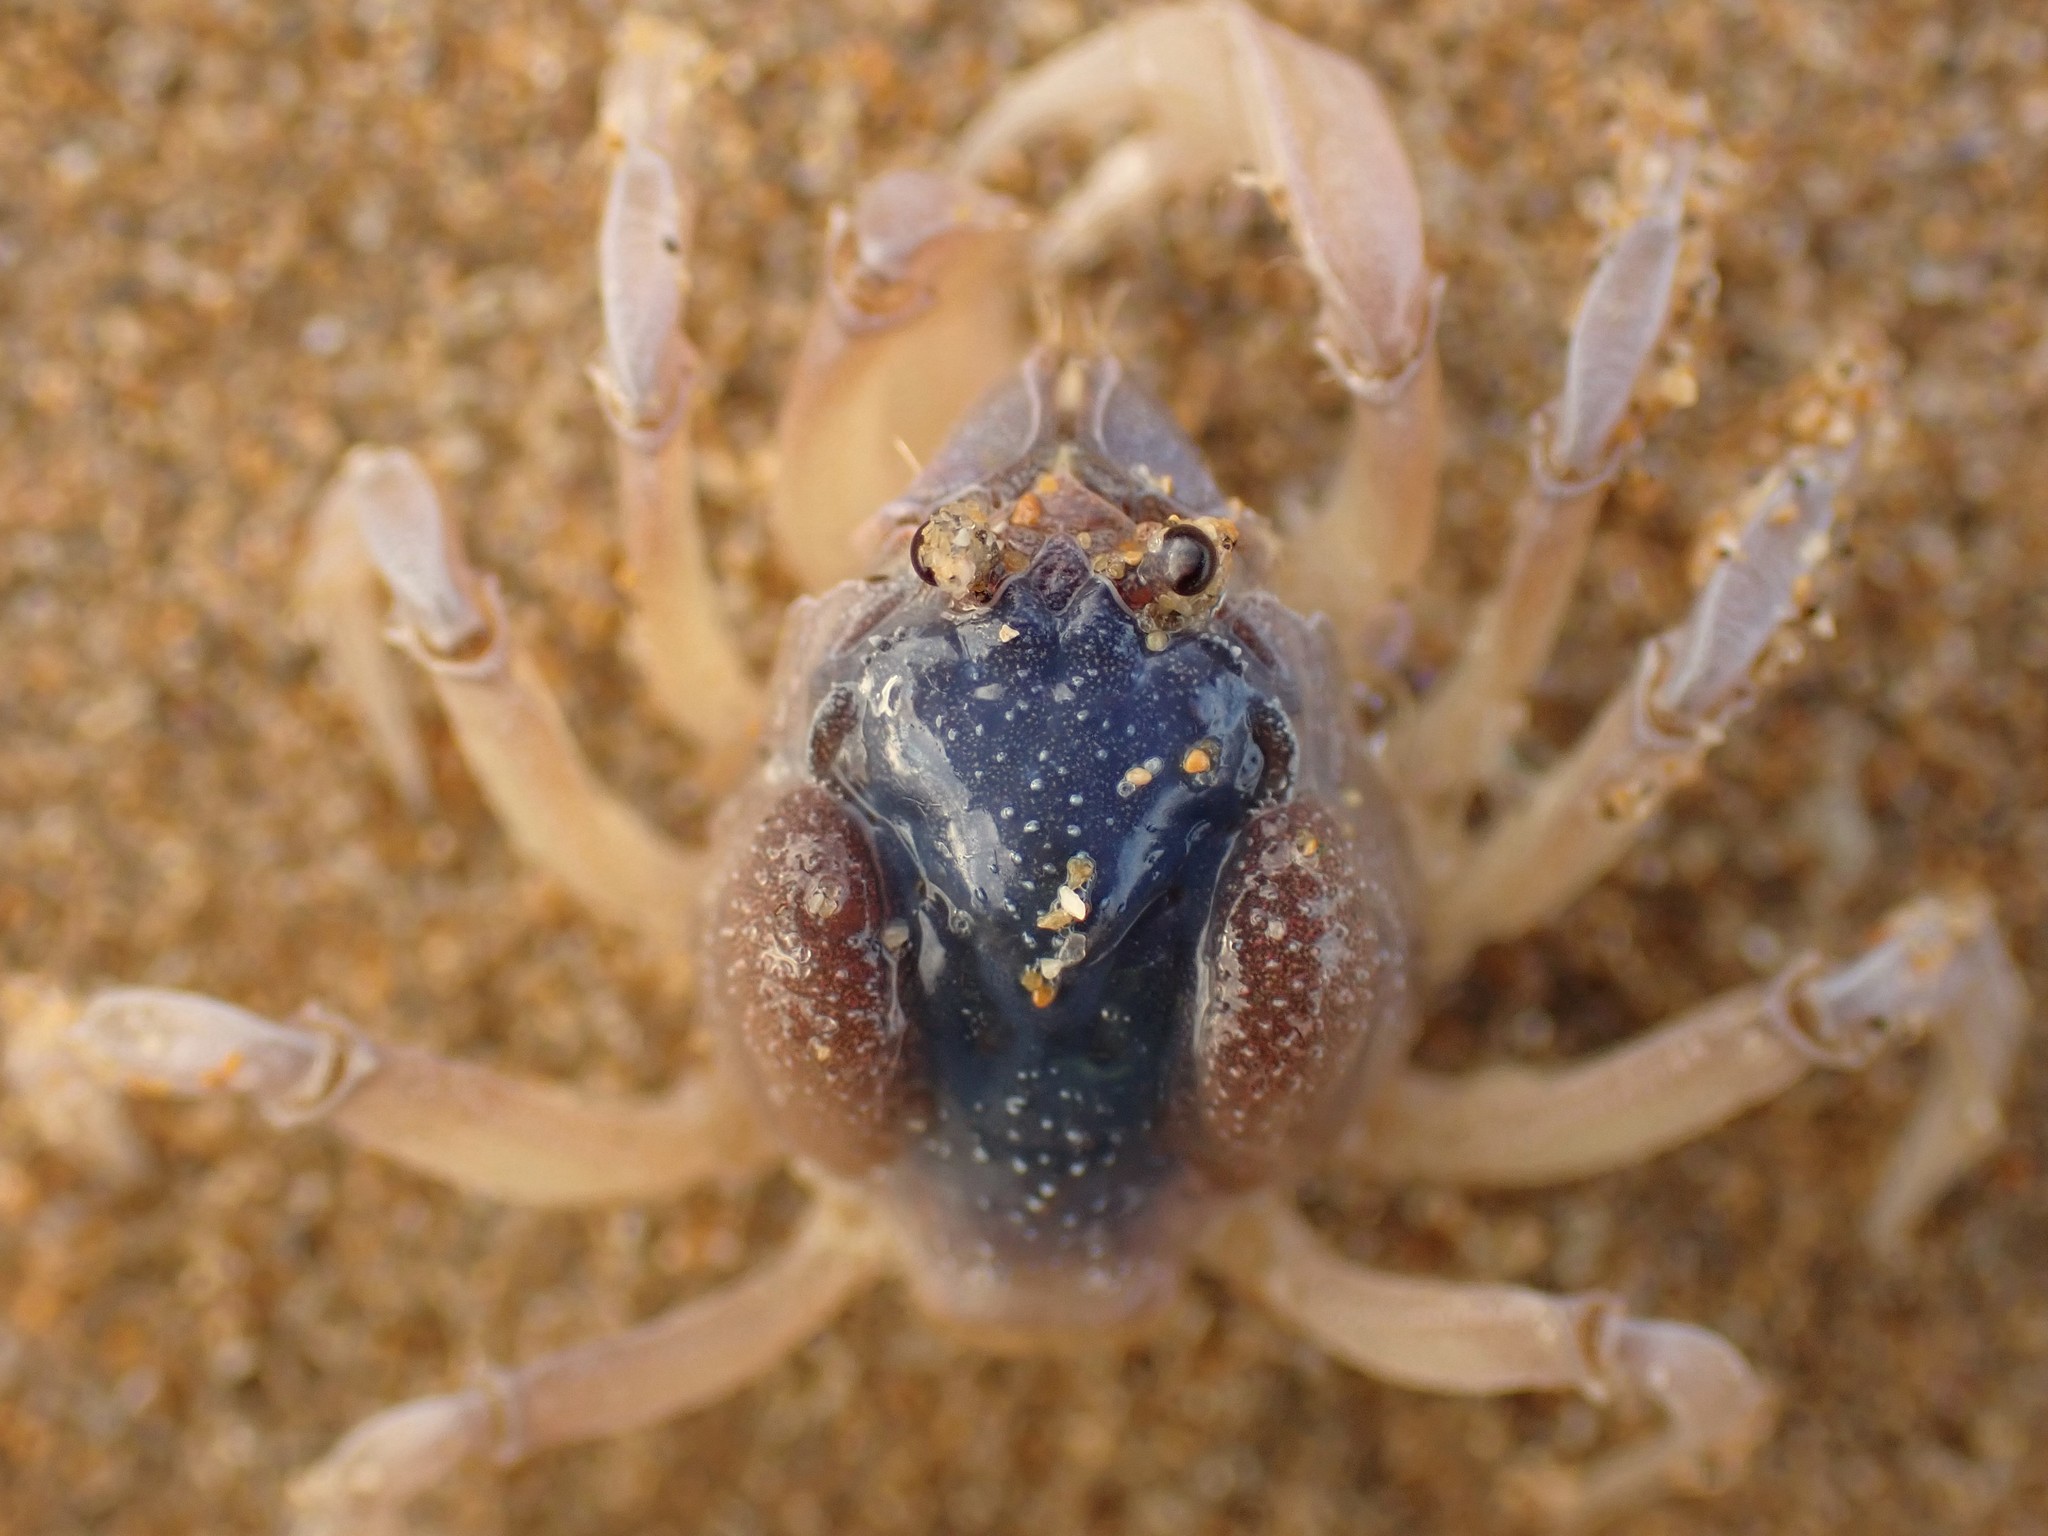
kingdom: Animalia
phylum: Arthropoda
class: Malacostraca
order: Decapoda
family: Mictyridae
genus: Mictyris
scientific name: Mictyris platycheles
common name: Dark blue soldier crab
